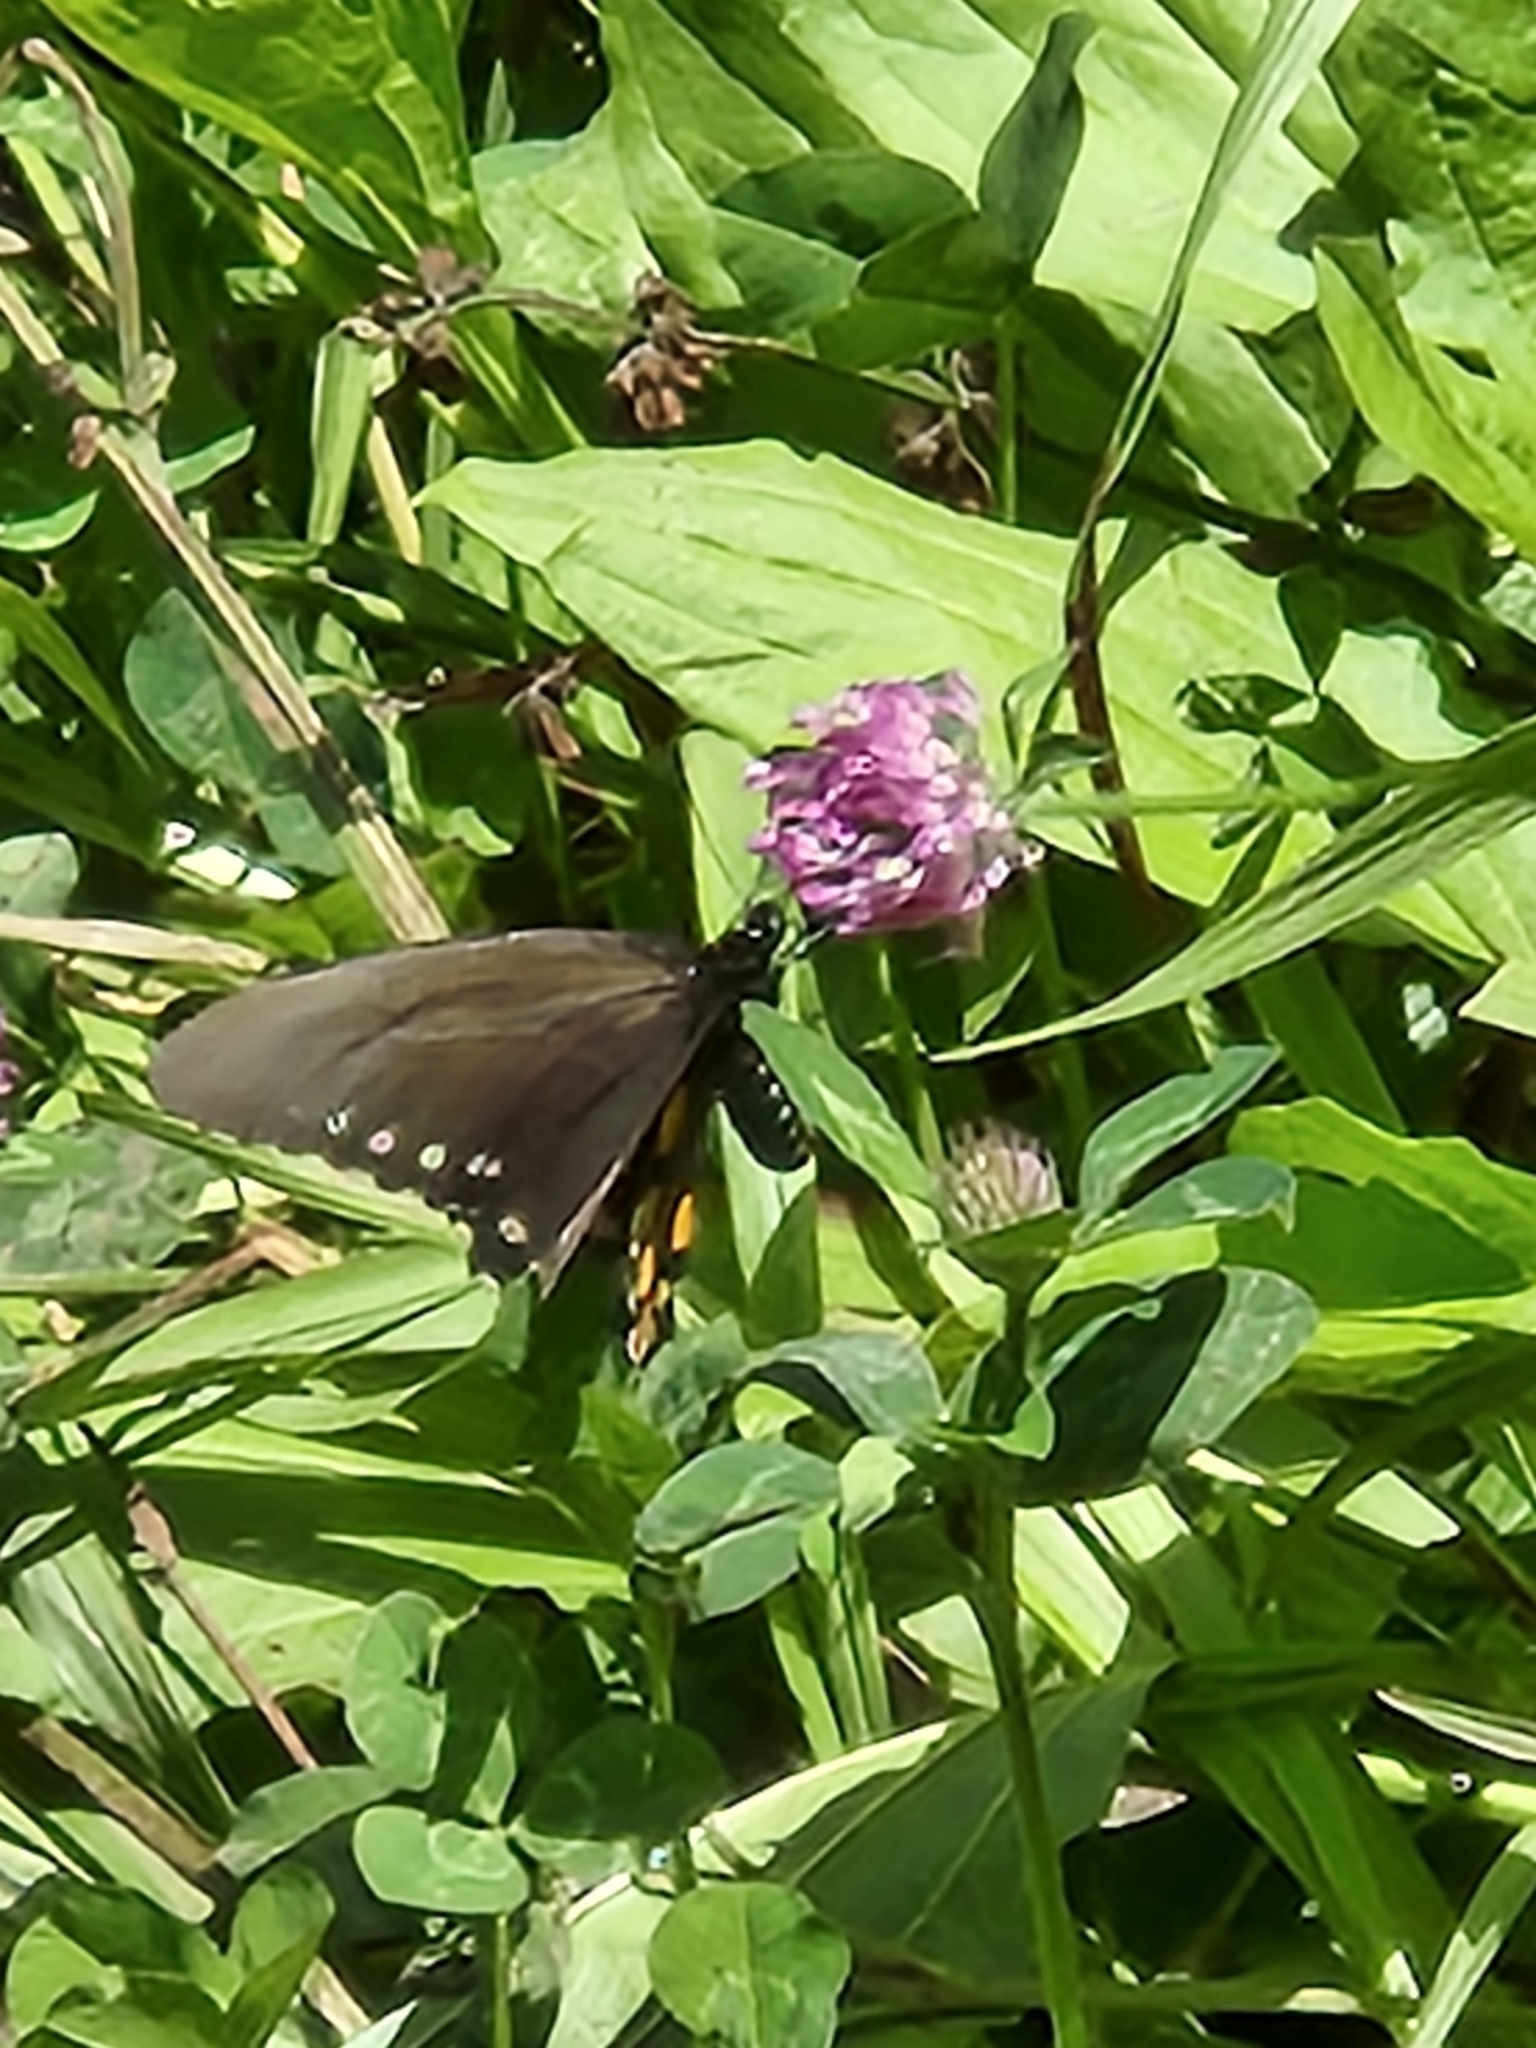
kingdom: Animalia
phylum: Arthropoda
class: Insecta
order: Lepidoptera
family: Papilionidae
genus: Battus
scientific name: Battus philenor
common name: Pipevine swallowtail
